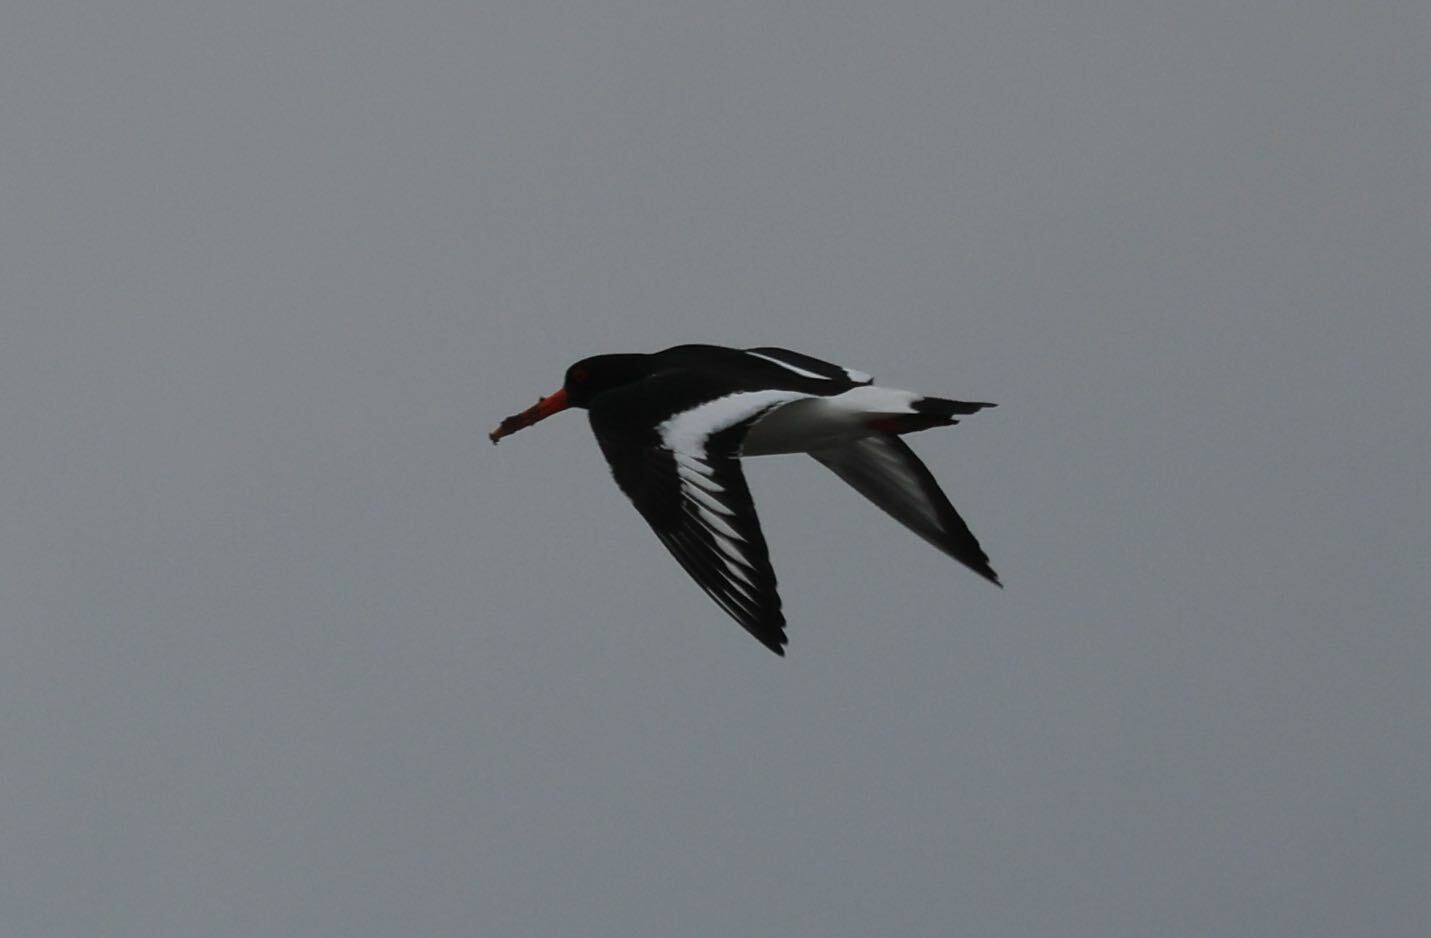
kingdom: Animalia
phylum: Chordata
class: Aves
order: Charadriiformes
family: Haematopodidae
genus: Haematopus
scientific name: Haematopus ostralegus
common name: Eurasian oystercatcher
